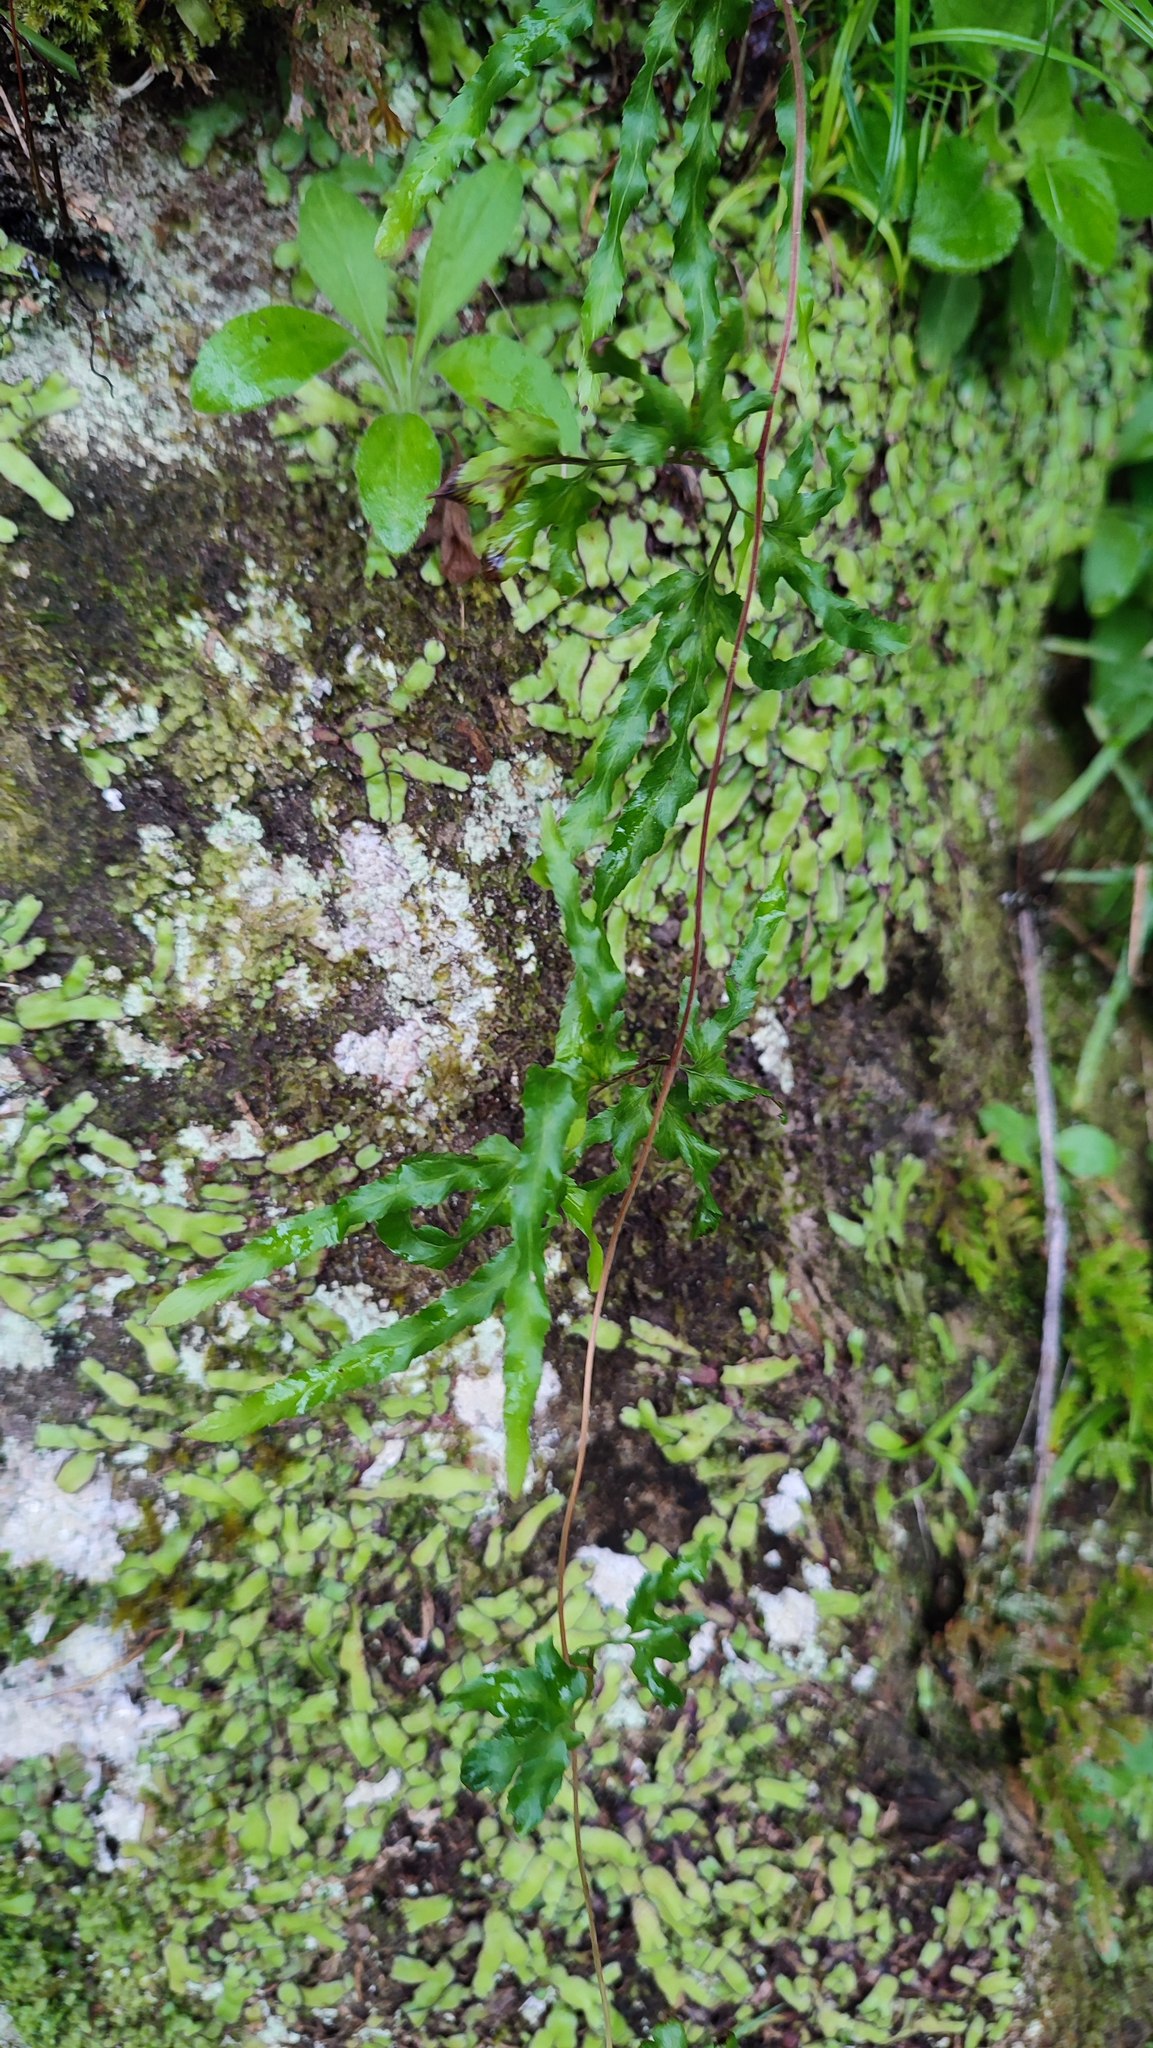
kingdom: Plantae
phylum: Tracheophyta
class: Polypodiopsida
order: Schizaeales
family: Lygodiaceae
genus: Lygodium
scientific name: Lygodium japonicum
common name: Japanese climbing fern
